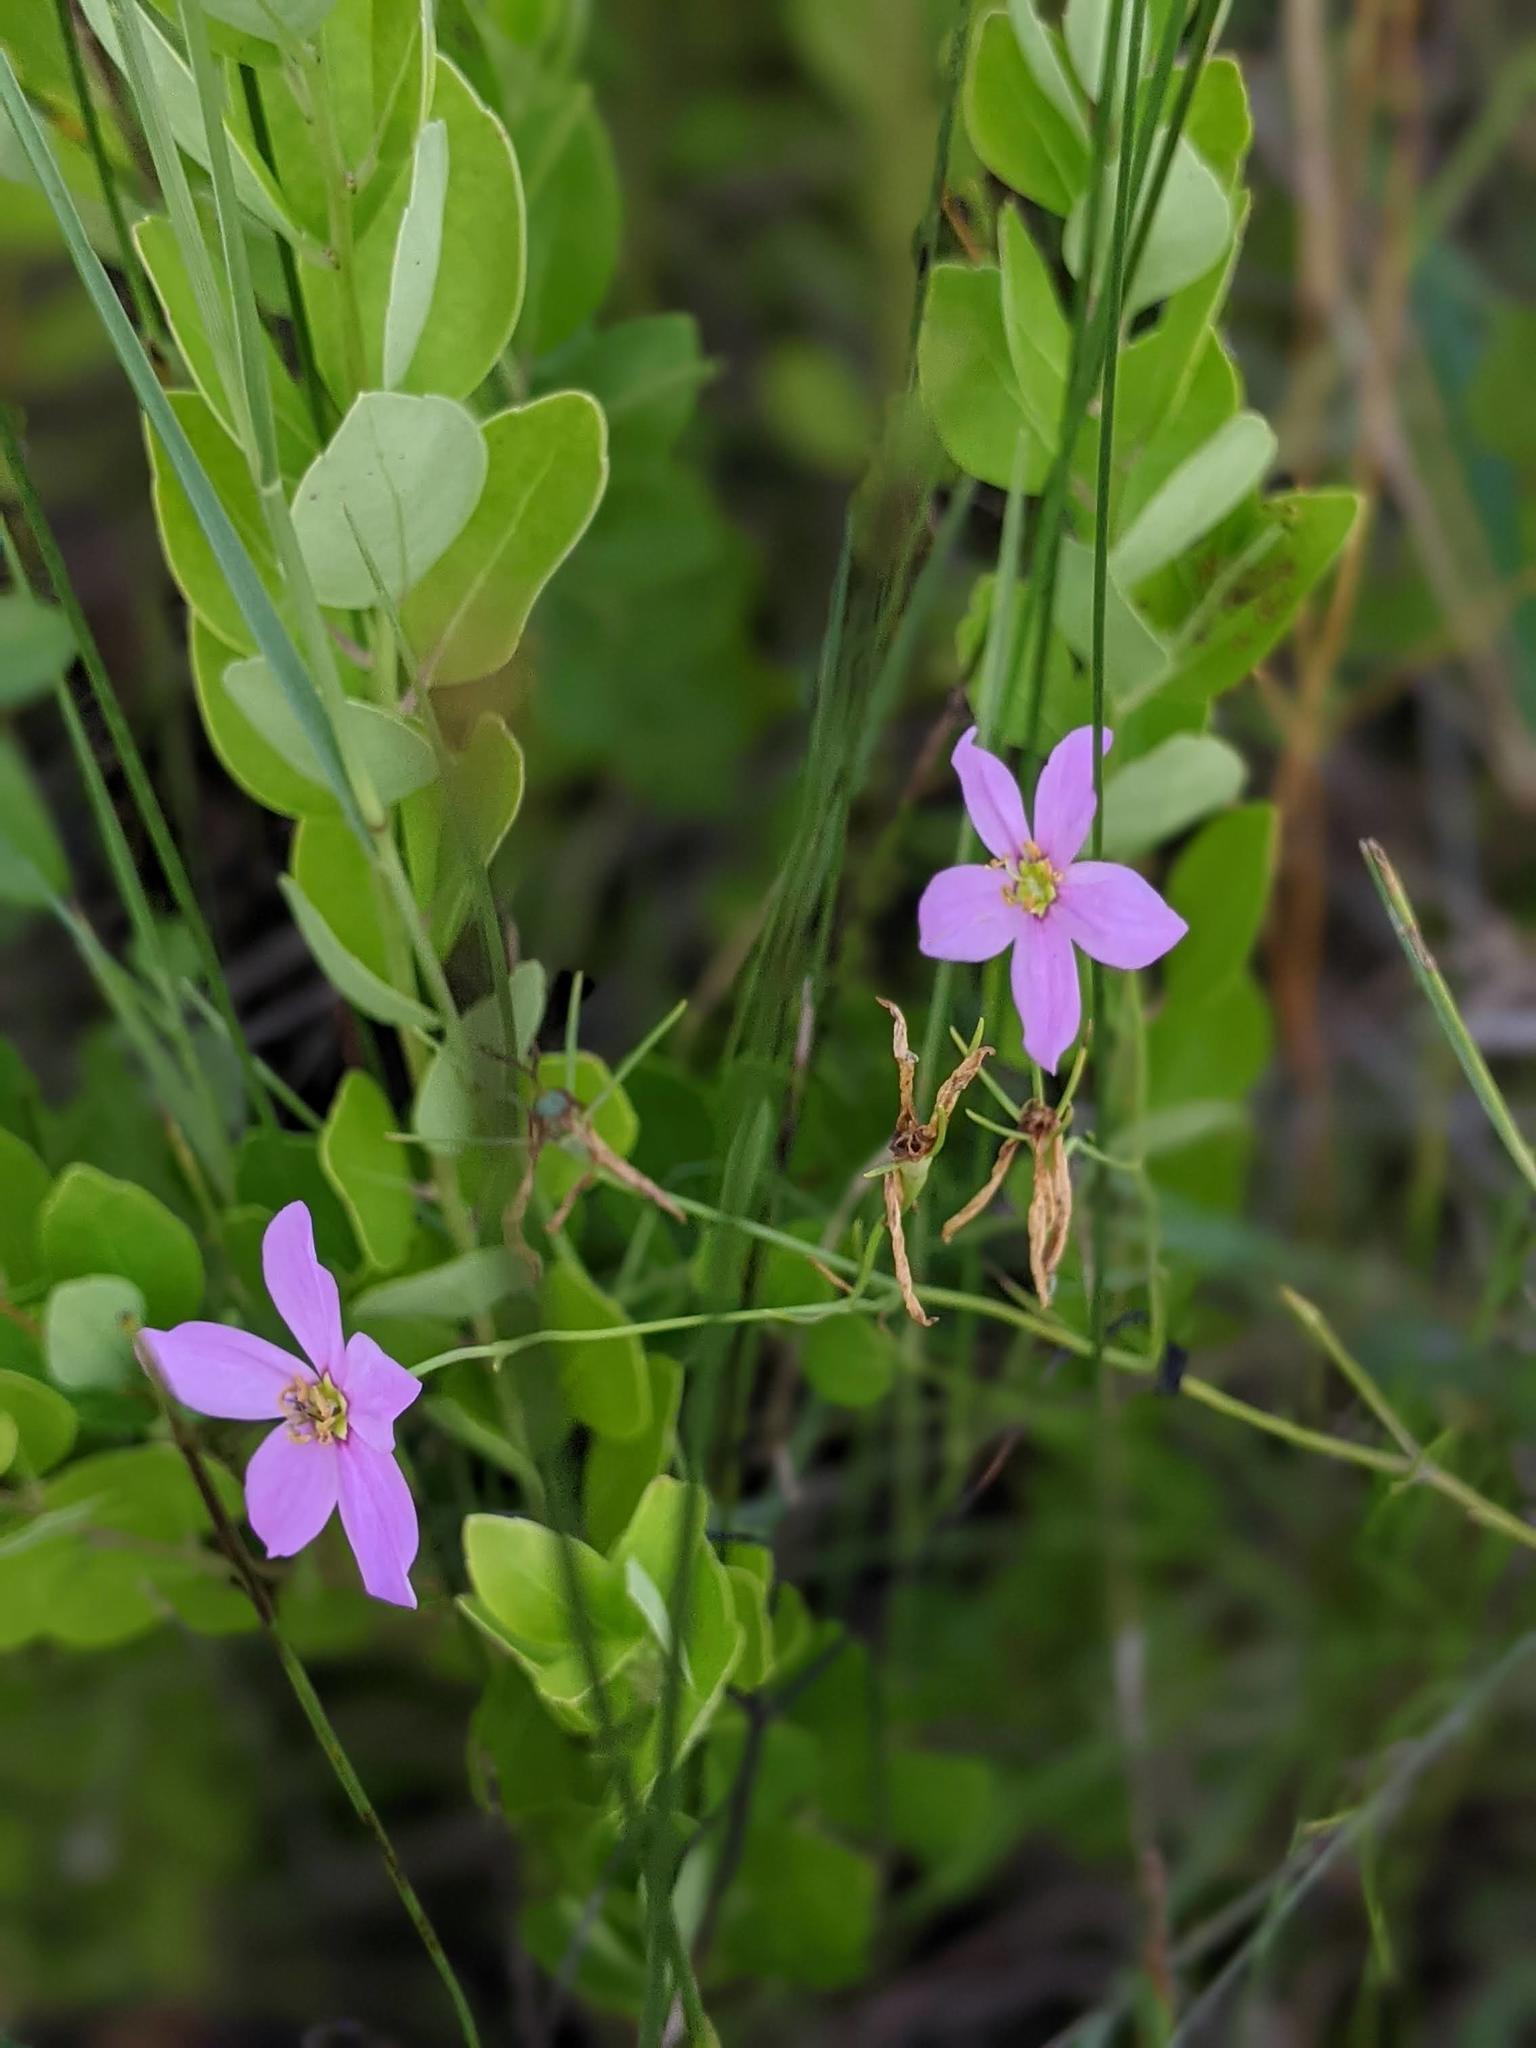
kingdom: Plantae
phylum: Tracheophyta
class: Magnoliopsida
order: Gentianales
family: Gentianaceae
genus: Sabatia
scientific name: Sabatia stellaris
